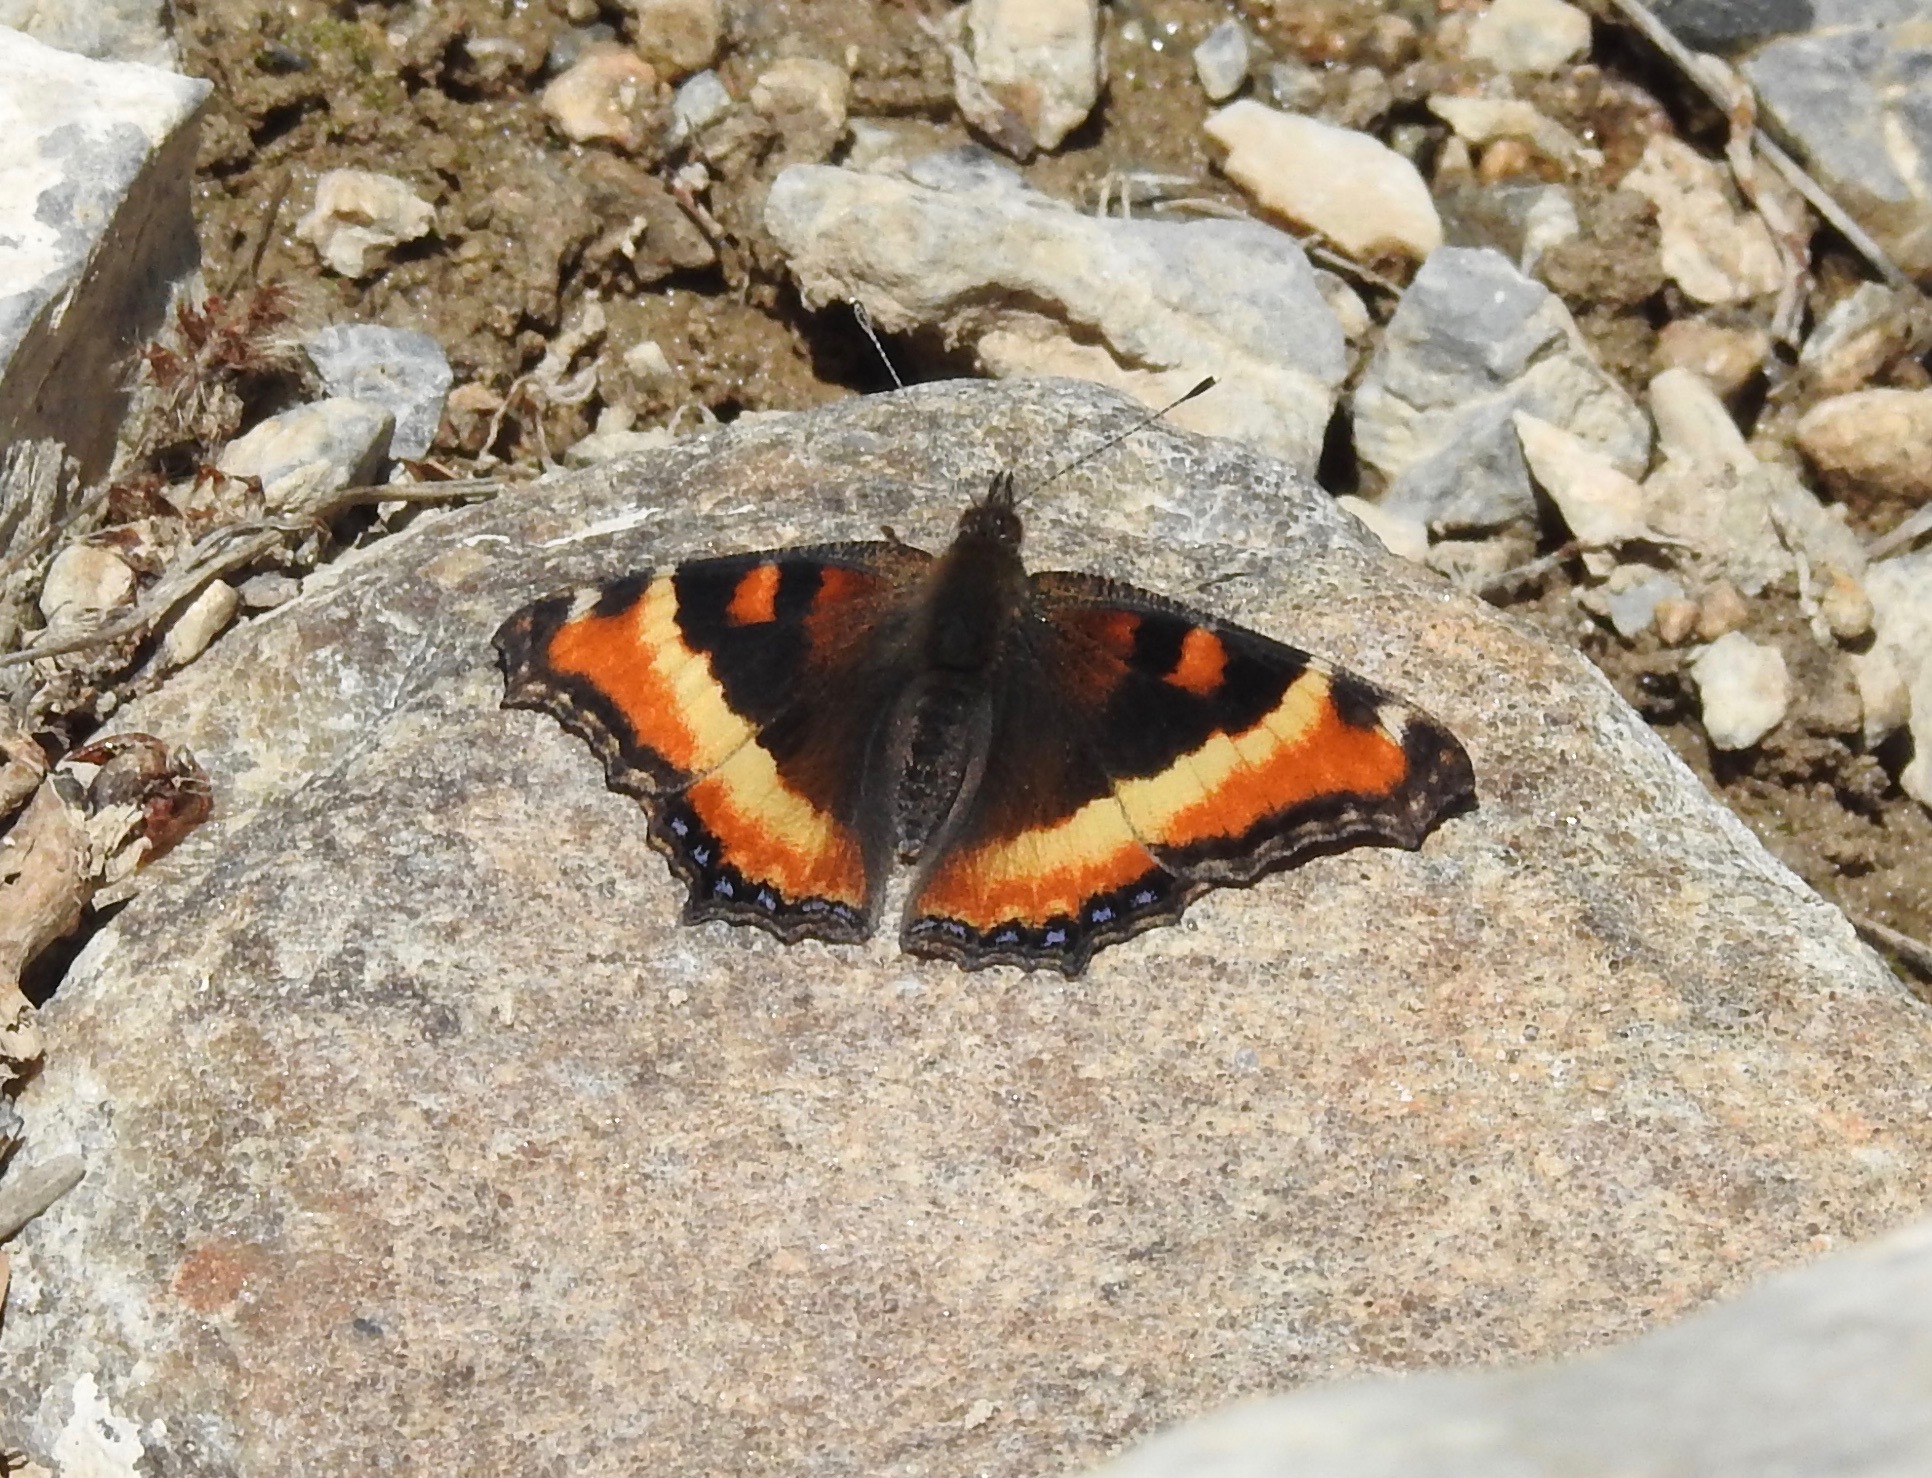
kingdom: Animalia
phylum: Arthropoda
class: Insecta
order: Lepidoptera
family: Nymphalidae
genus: Aglais
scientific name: Aglais milberti
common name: Milbert's tortoiseshell
